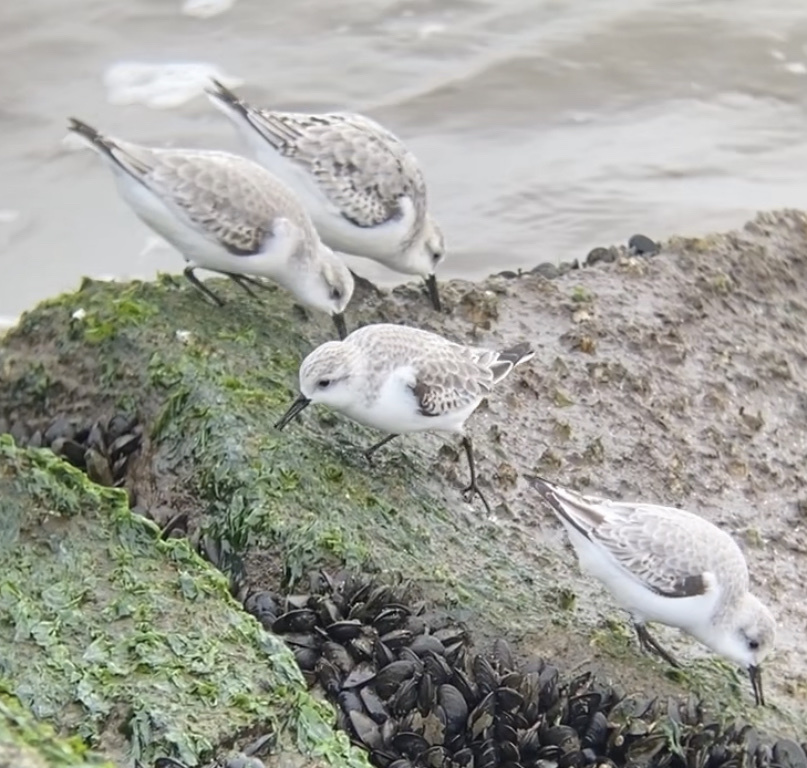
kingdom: Animalia
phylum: Chordata
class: Aves
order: Charadriiformes
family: Scolopacidae
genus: Calidris
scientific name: Calidris alba
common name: Sanderling
